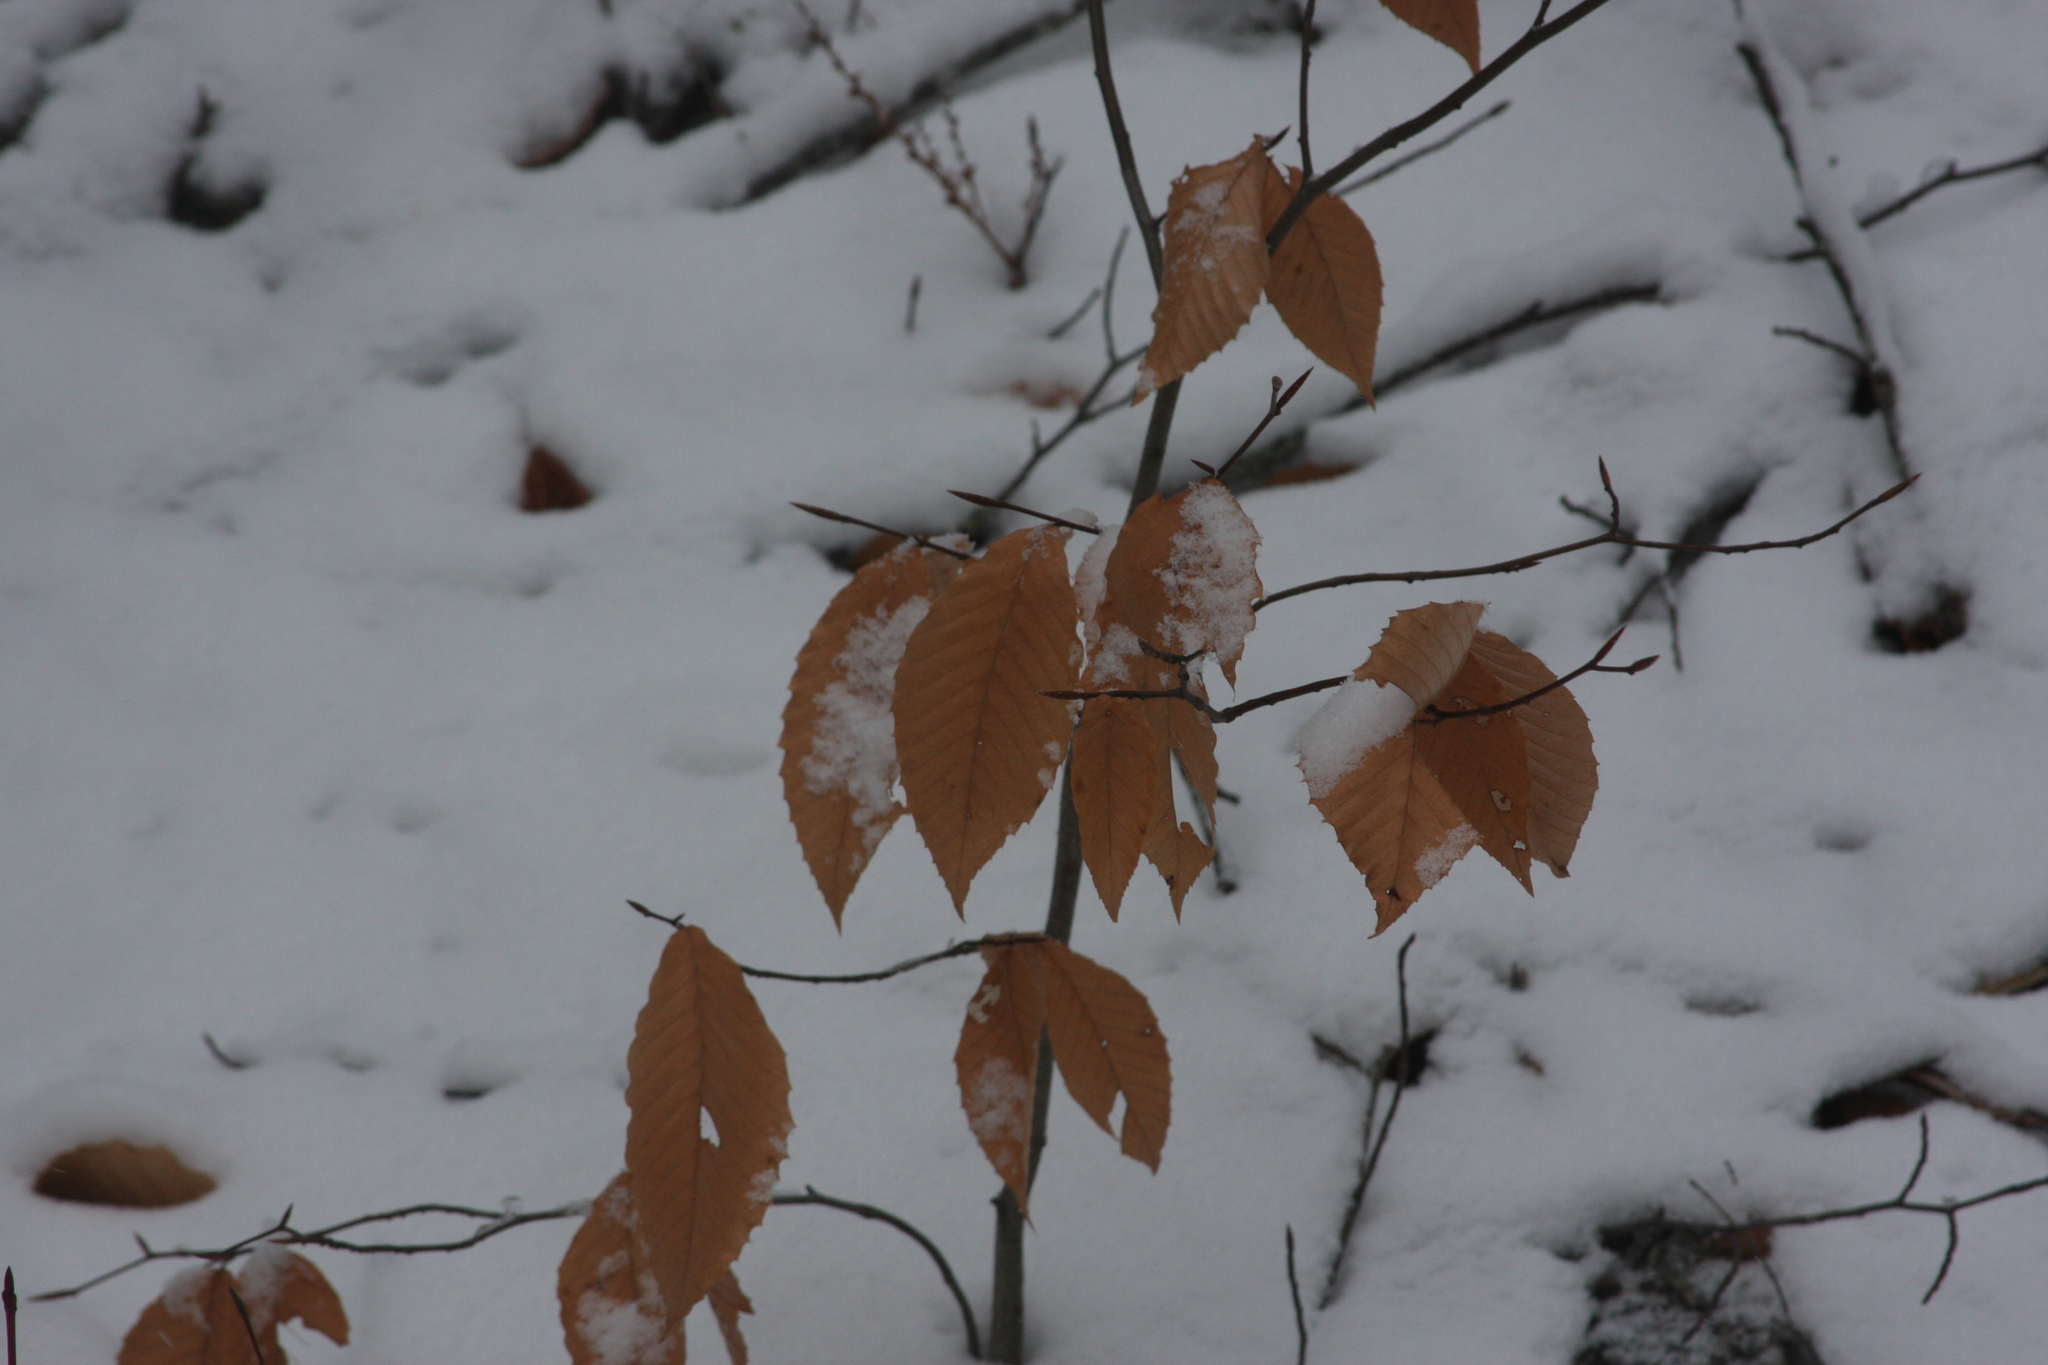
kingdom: Plantae
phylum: Tracheophyta
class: Magnoliopsida
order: Fagales
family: Fagaceae
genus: Fagus
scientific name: Fagus grandifolia
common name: American beech
